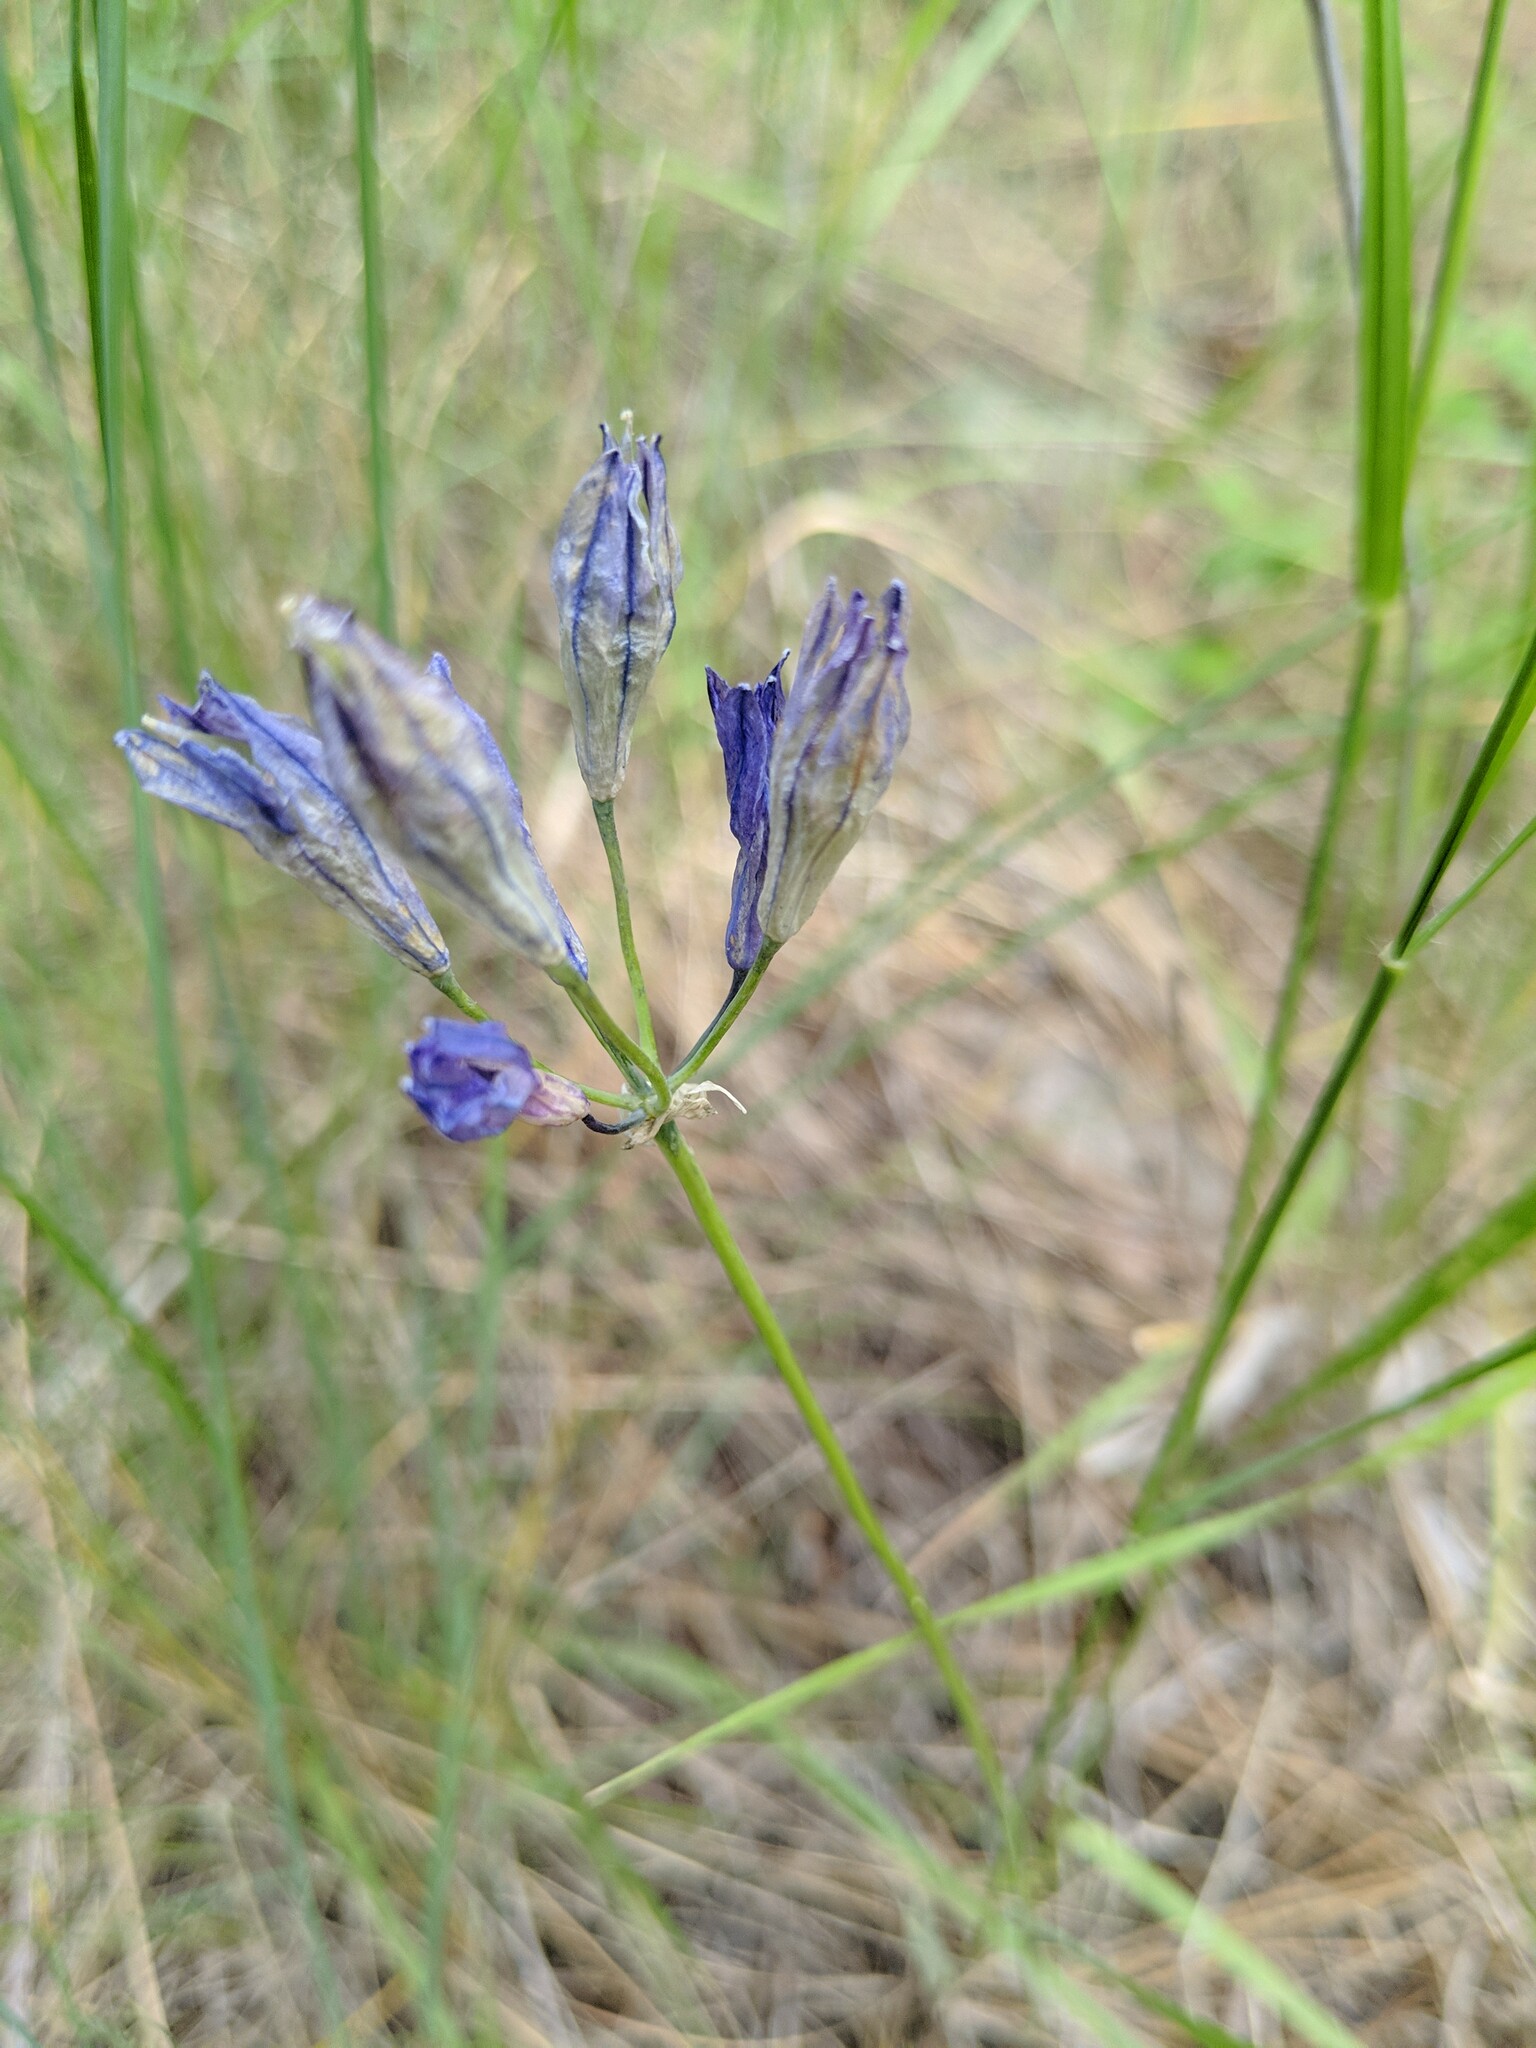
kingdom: Plantae
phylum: Tracheophyta
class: Liliopsida
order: Asparagales
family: Asparagaceae
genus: Triteleia
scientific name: Triteleia grandiflora
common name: Wild hyacinth
